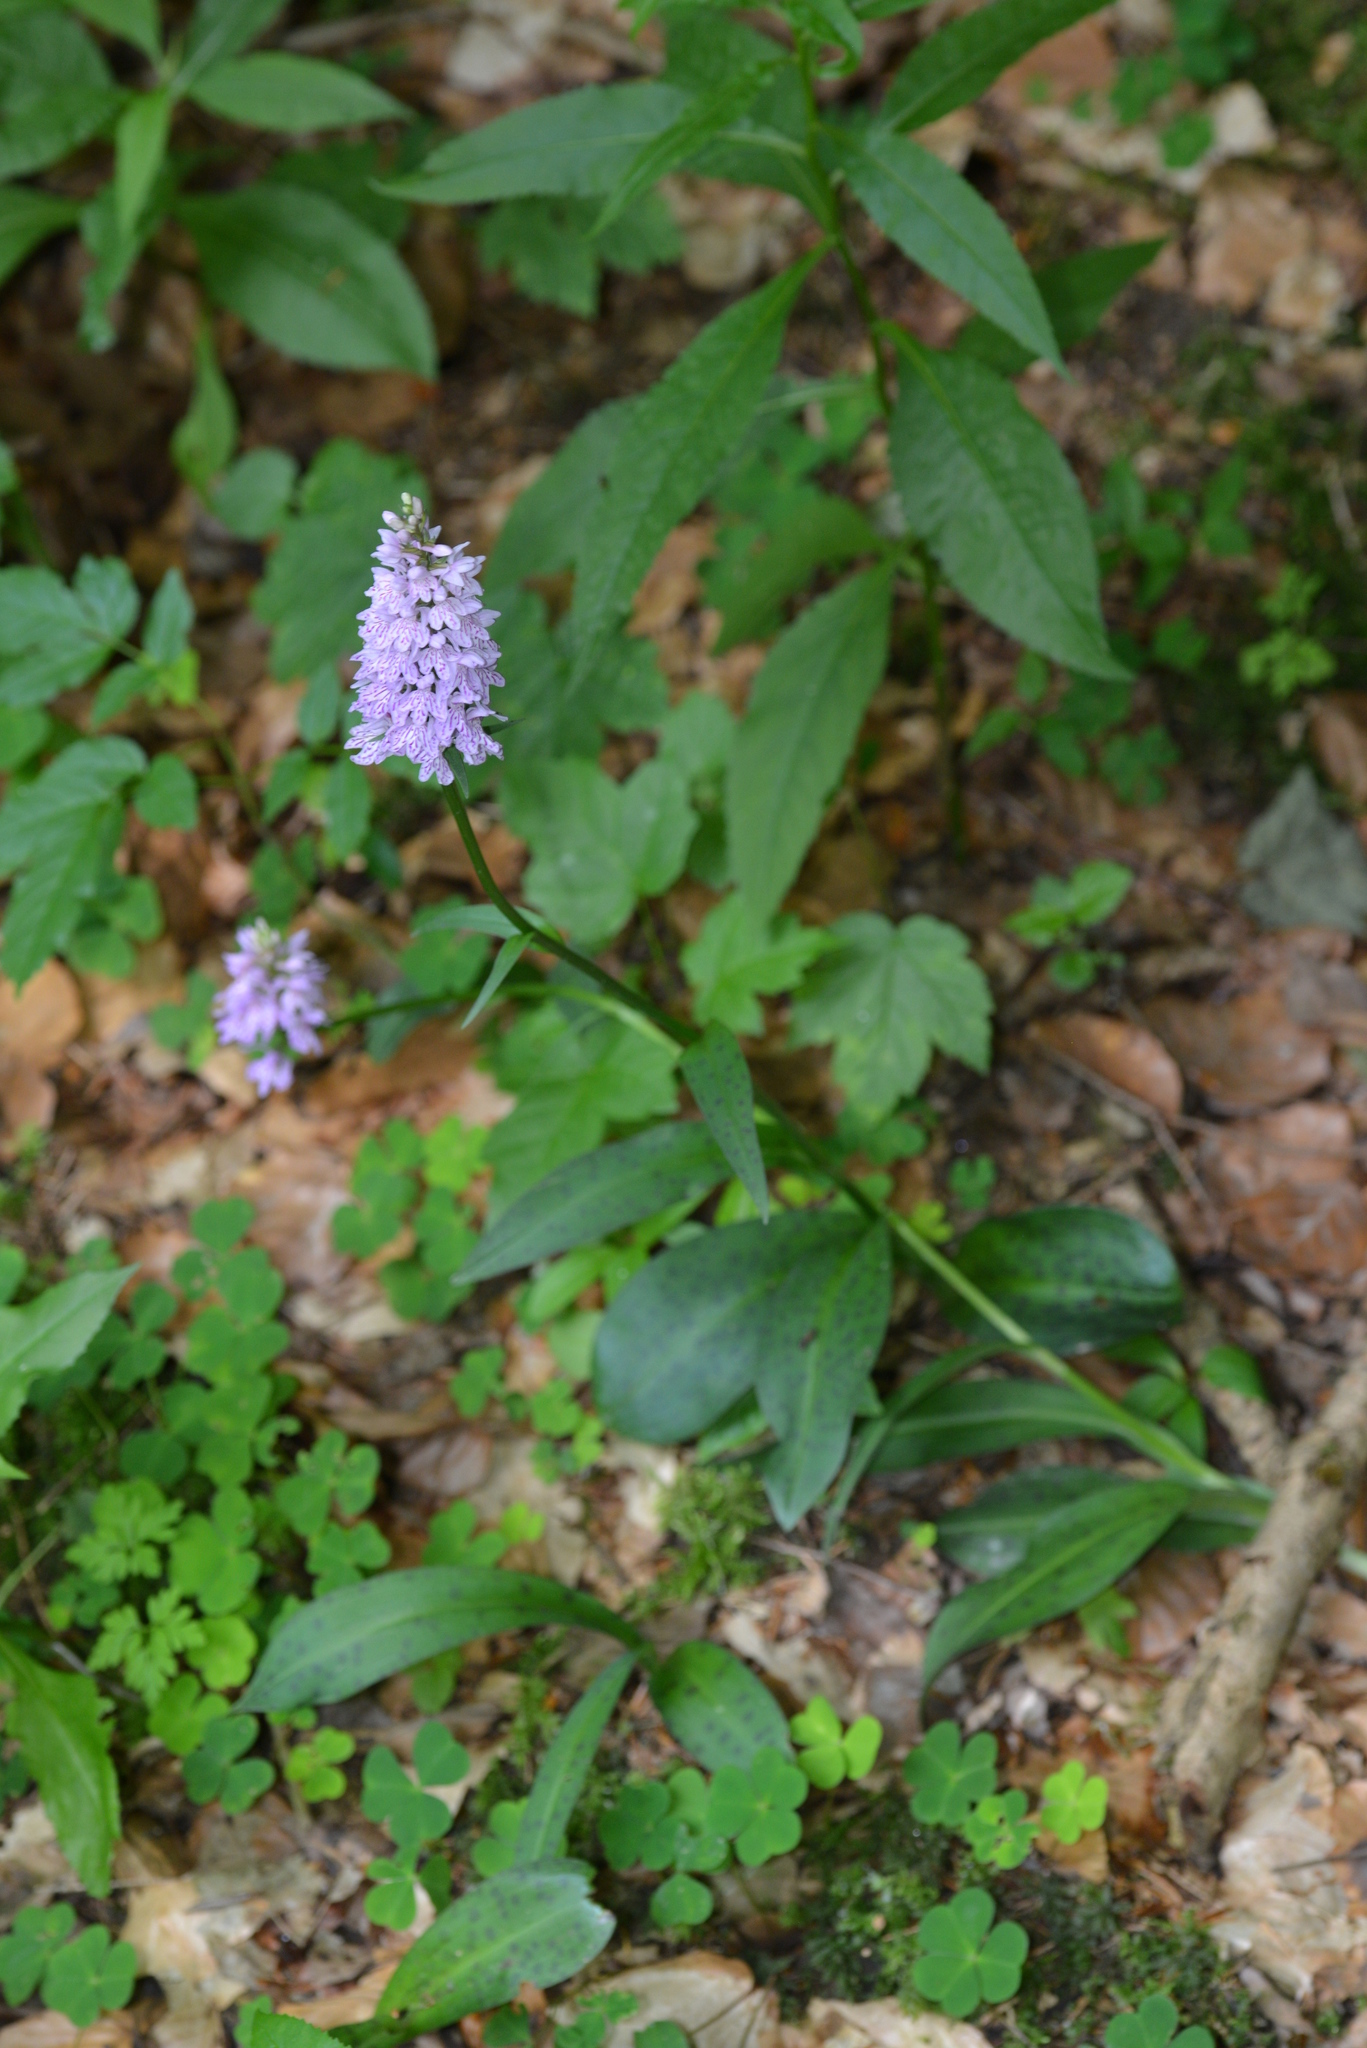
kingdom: Plantae
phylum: Tracheophyta
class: Liliopsida
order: Asparagales
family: Orchidaceae
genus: Dactylorhiza
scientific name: Dactylorhiza maculata
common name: Heath spotted-orchid
